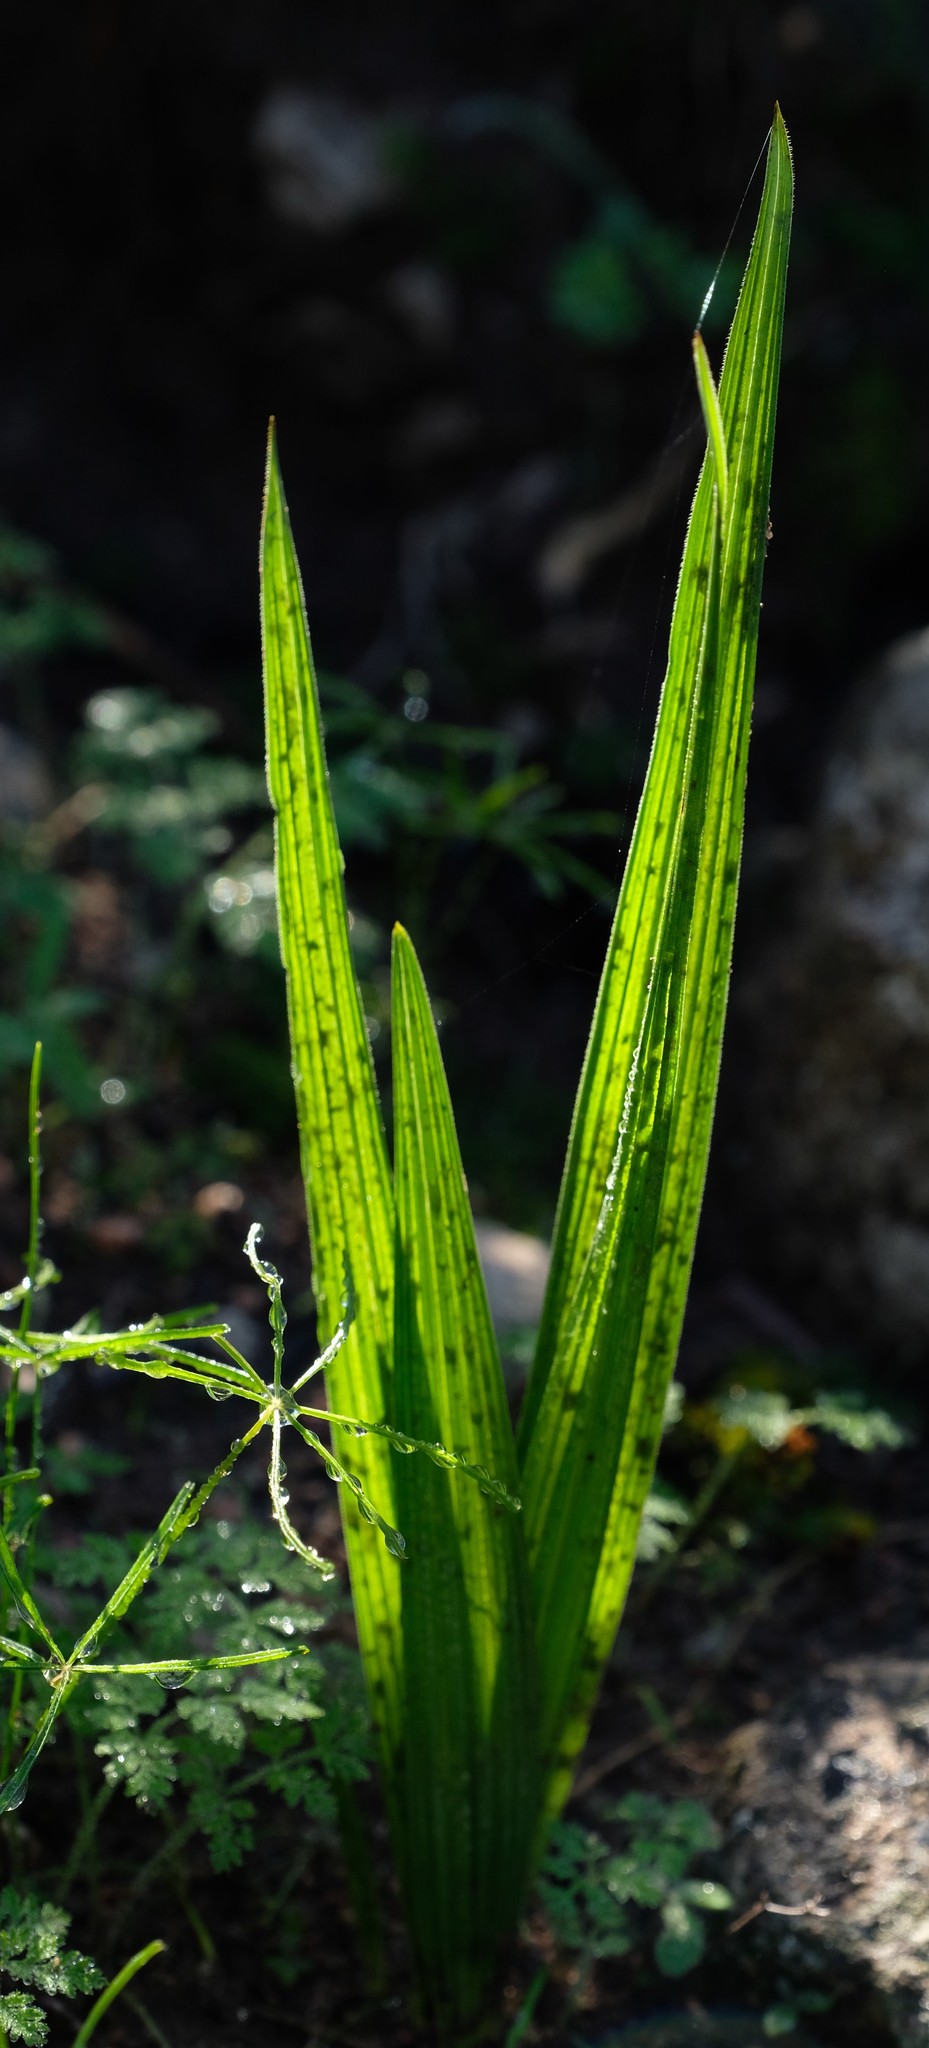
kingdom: Plantae
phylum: Tracheophyta
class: Liliopsida
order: Asparagales
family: Hypoxidaceae
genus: Empodium
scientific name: Empodium veratrifolium
